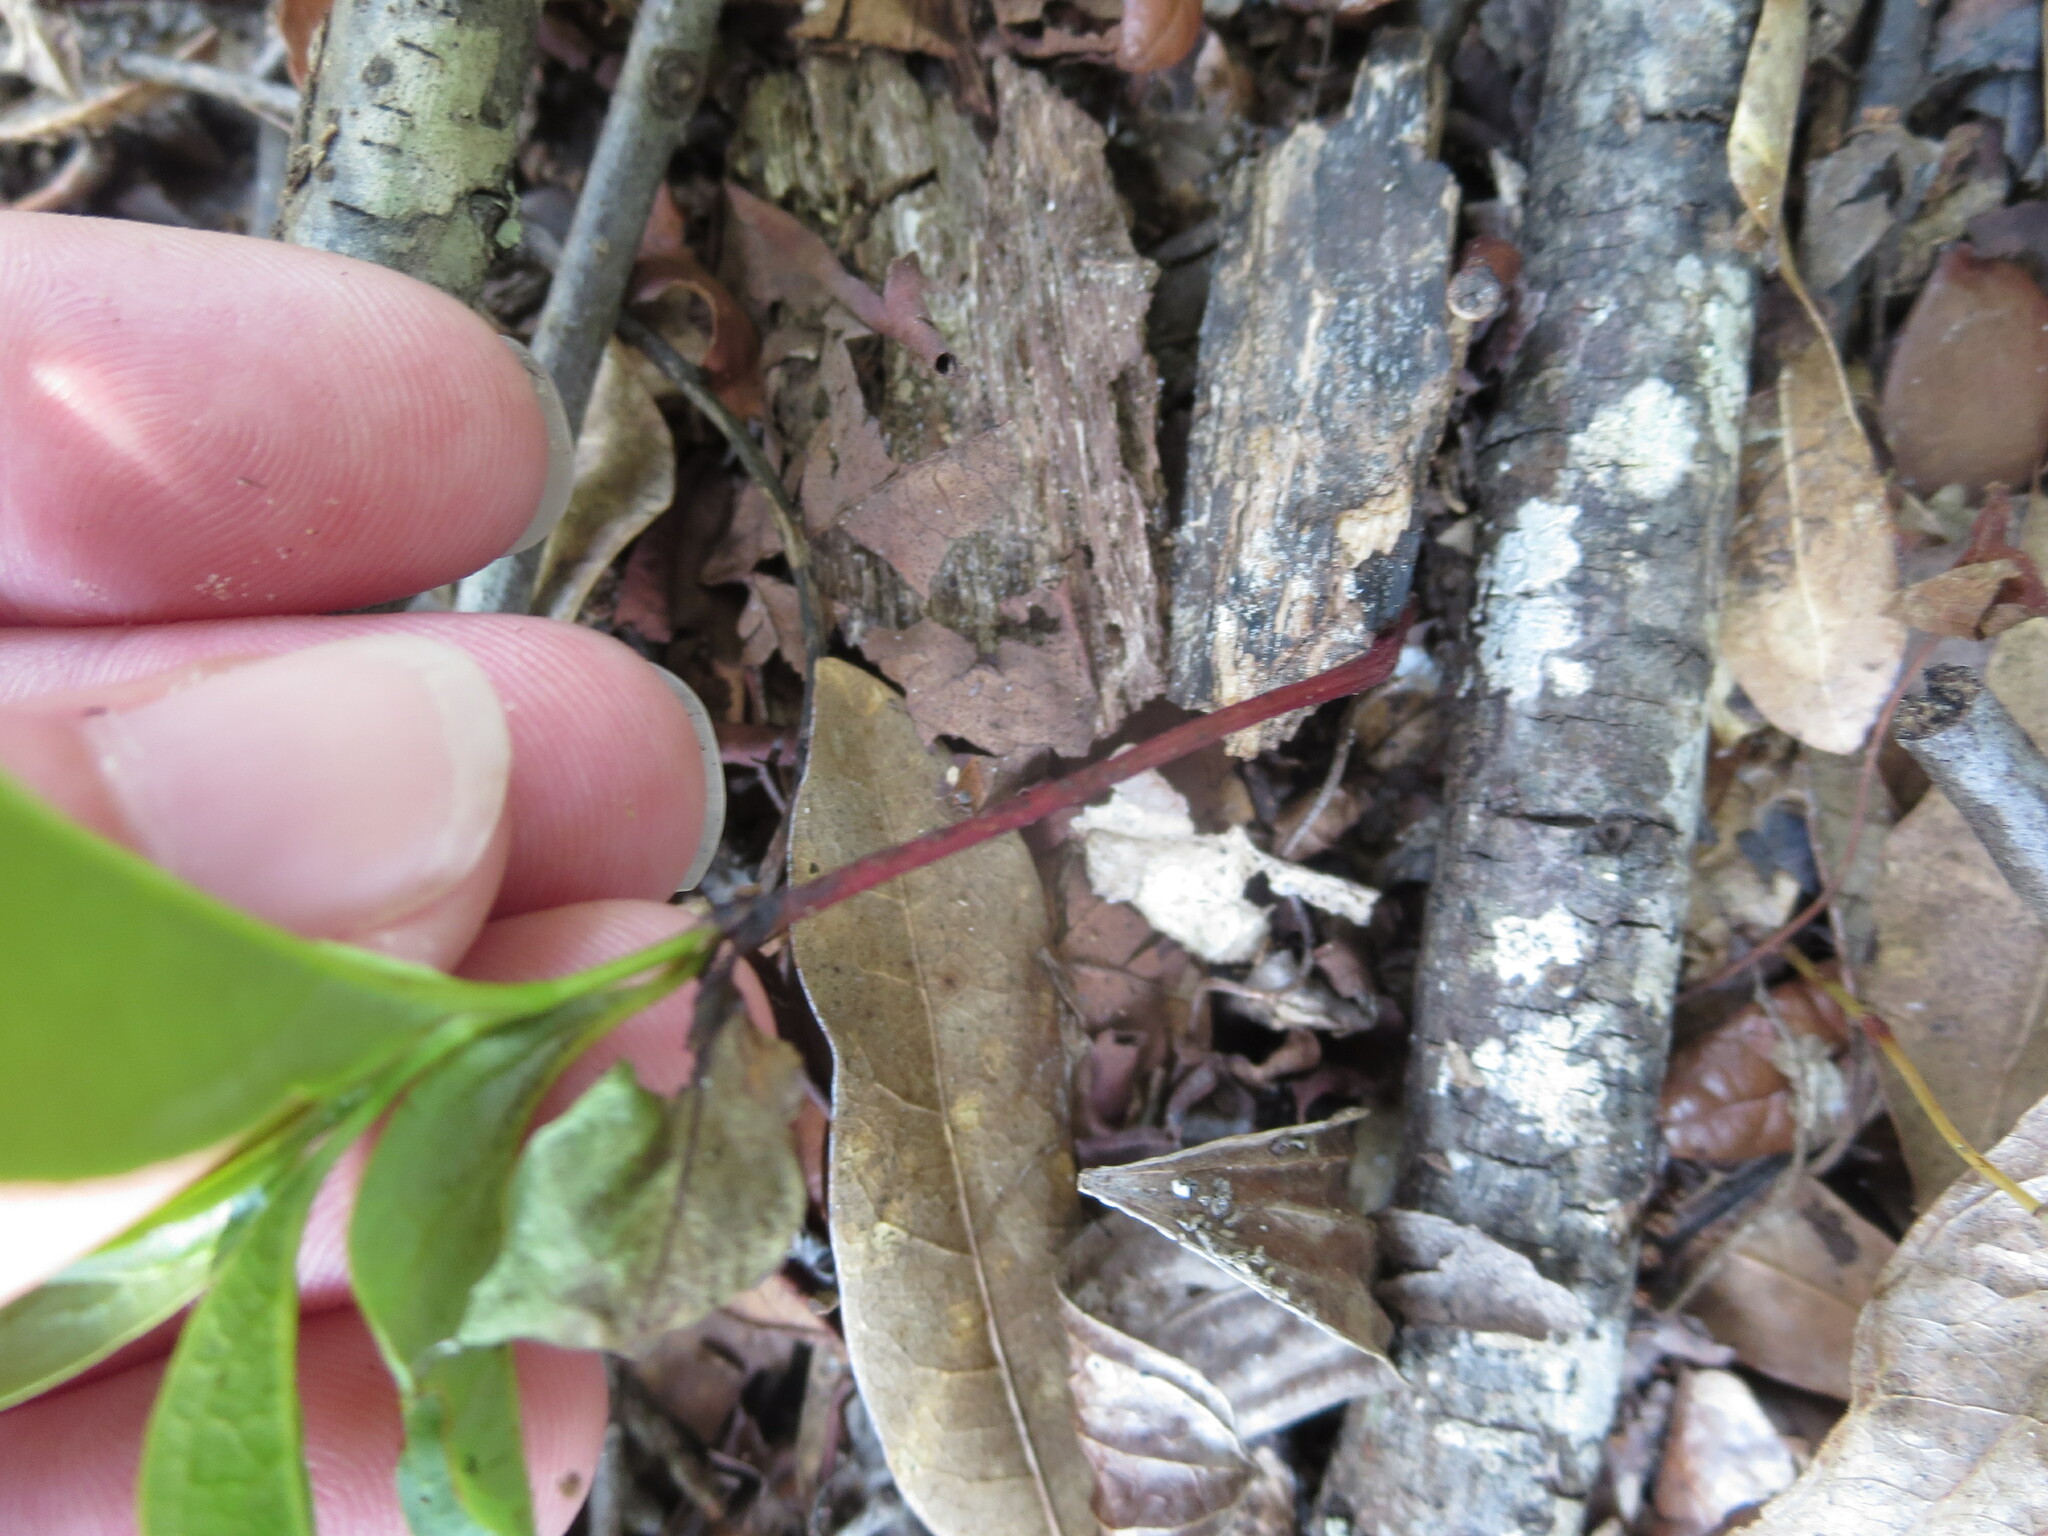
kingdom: Plantae
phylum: Tracheophyta
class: Magnoliopsida
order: Ericales
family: Ebenaceae
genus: Diospyros
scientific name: Diospyros virginiana
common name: Persimmon
